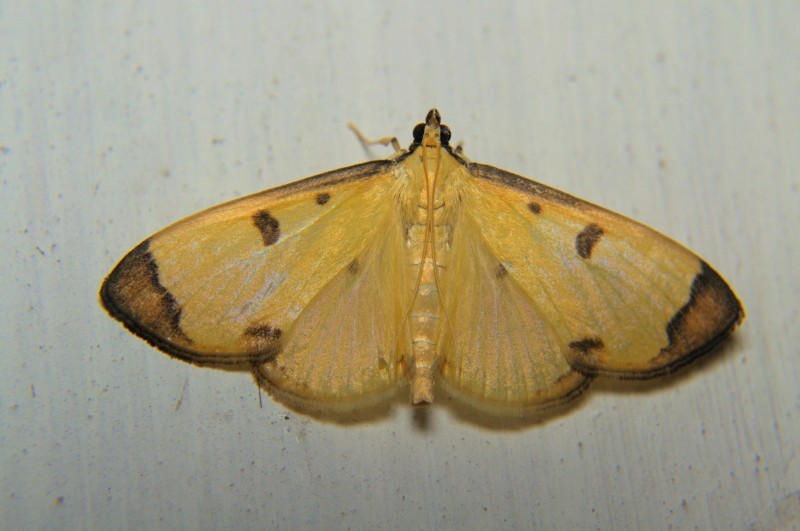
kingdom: Animalia
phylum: Arthropoda
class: Insecta
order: Lepidoptera
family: Pyralidae
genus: Uncobotyodes
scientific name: Uncobotyodes
